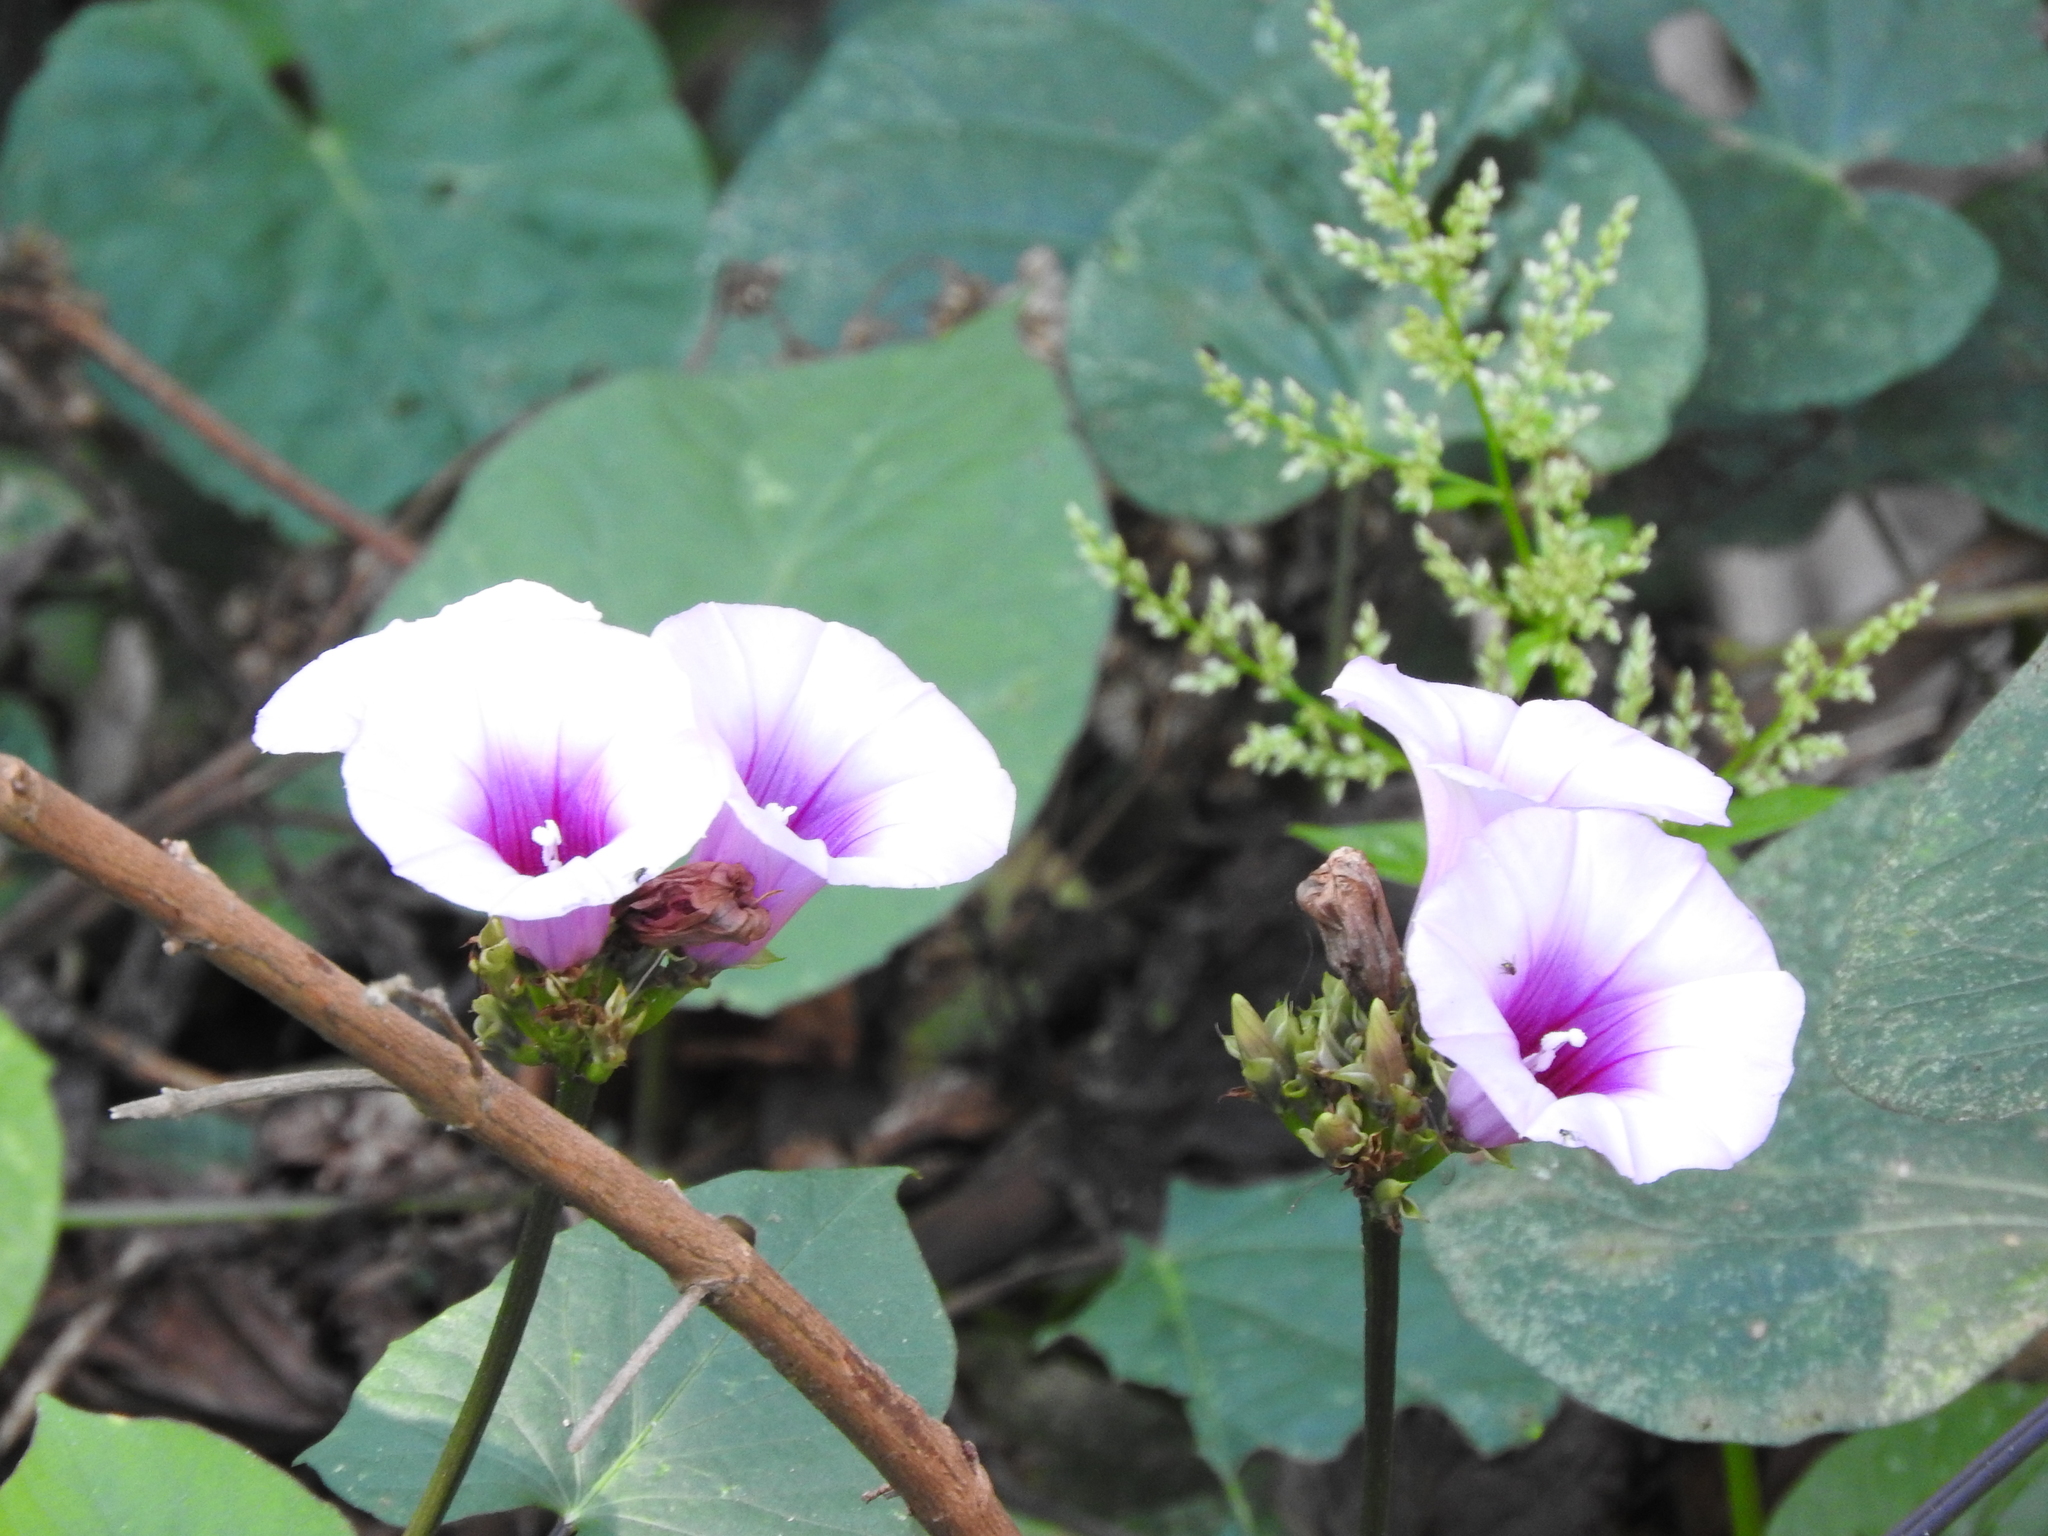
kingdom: Plantae
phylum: Tracheophyta
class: Magnoliopsida
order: Solanales
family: Convolvulaceae
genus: Ipomoea
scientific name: Ipomoea batatas
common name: Sweet-potato
